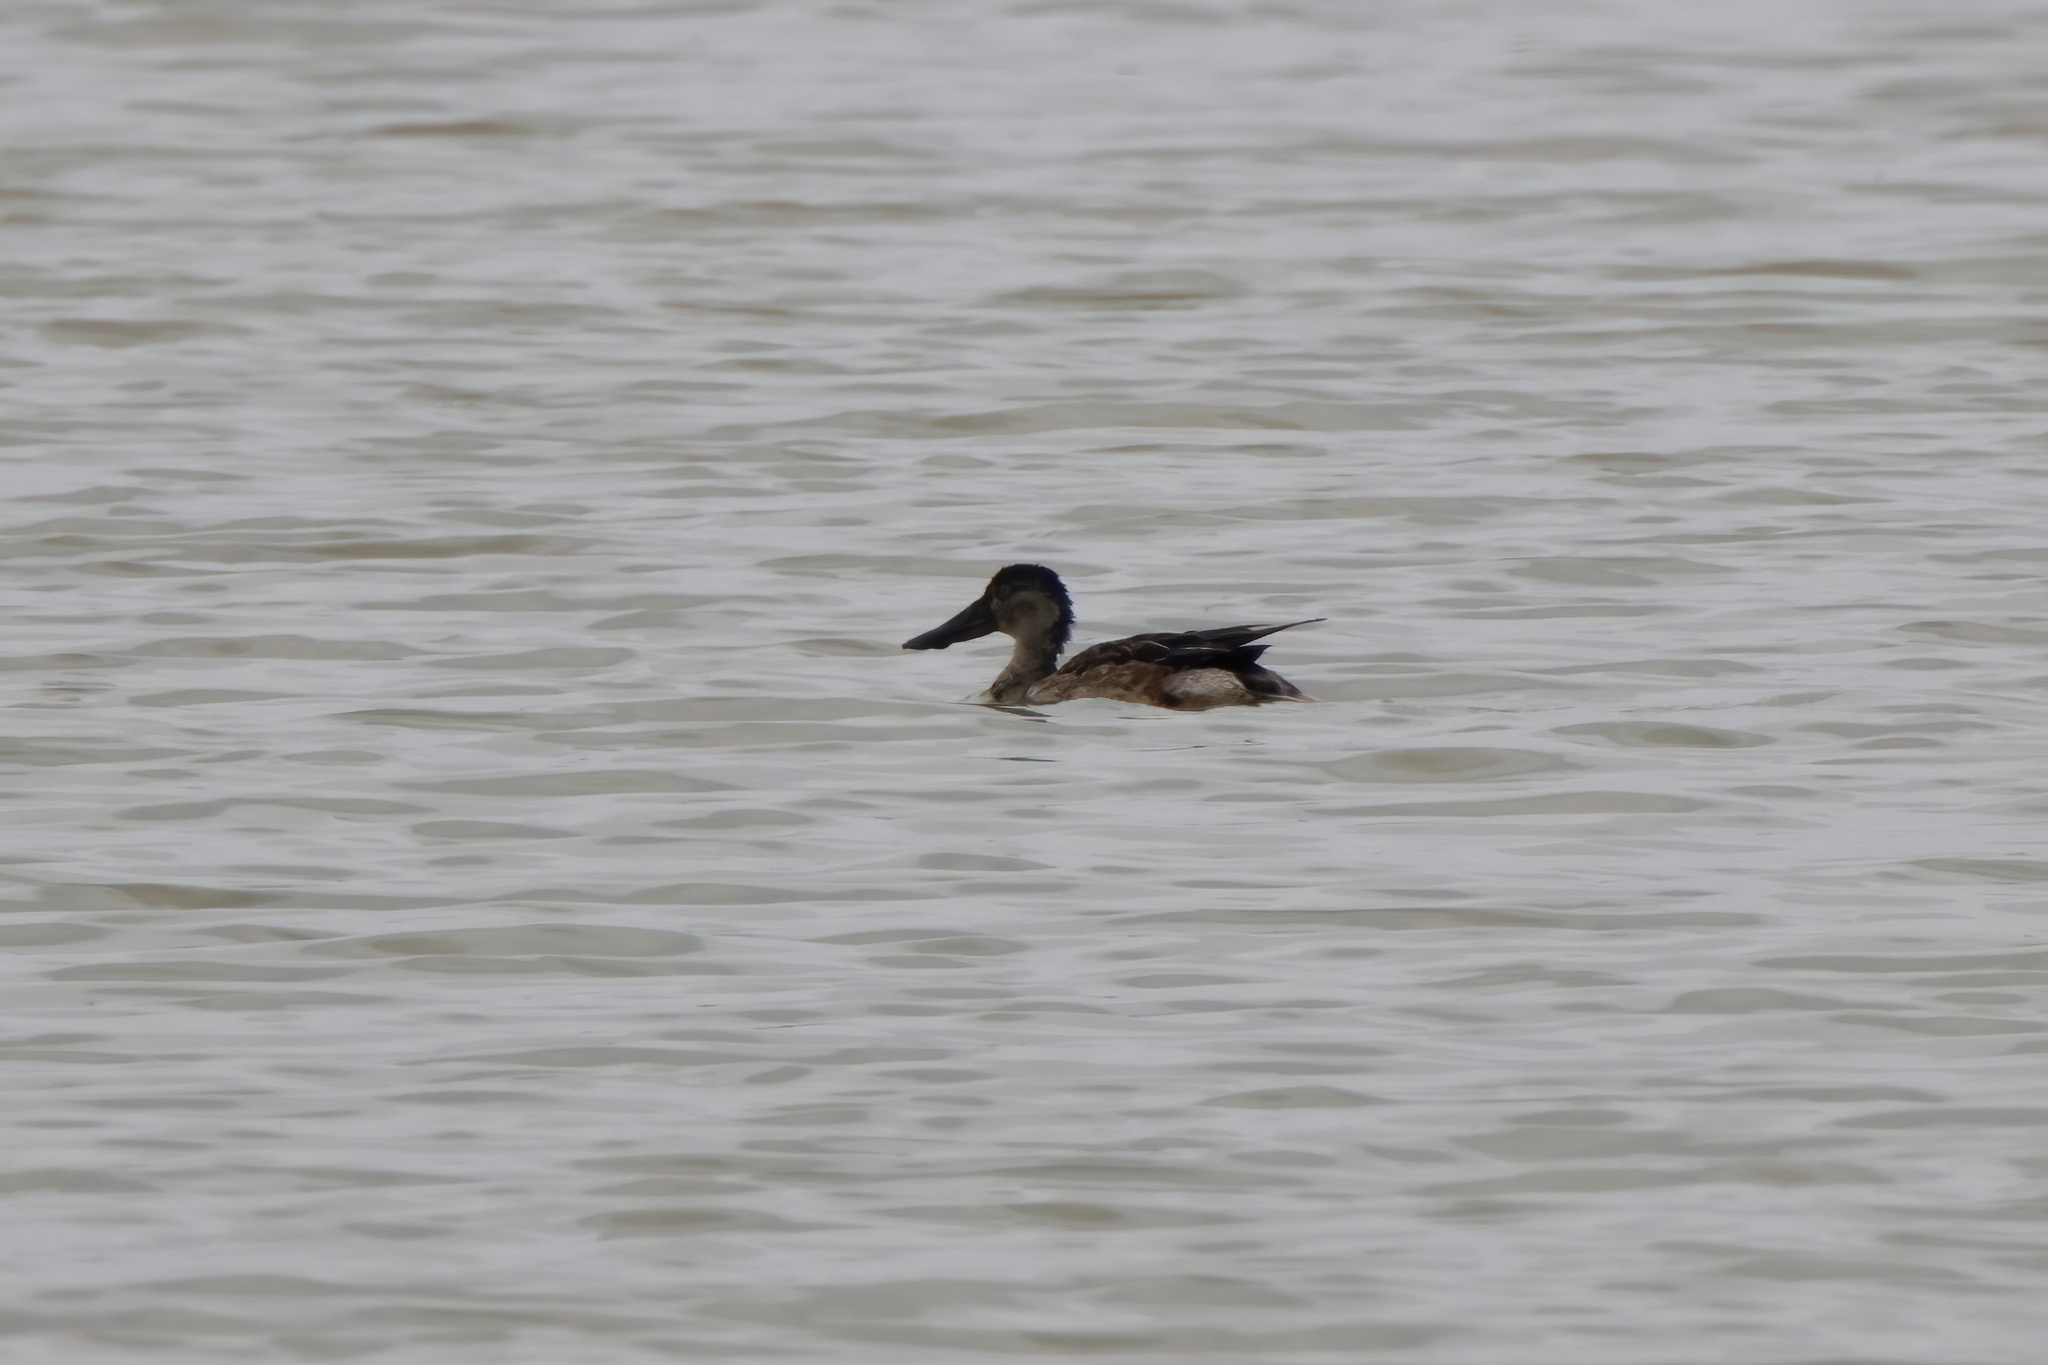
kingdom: Animalia
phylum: Chordata
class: Aves
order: Anseriformes
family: Anatidae
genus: Spatula
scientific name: Spatula clypeata
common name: Northern shoveler
